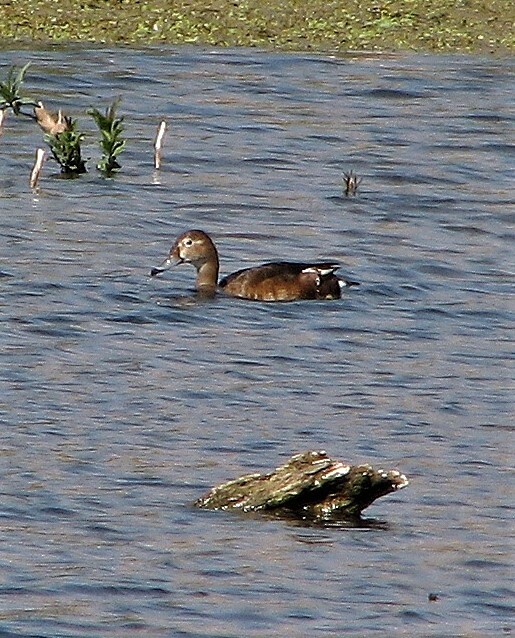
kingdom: Animalia
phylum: Chordata
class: Aves
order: Anseriformes
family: Anatidae
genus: Netta
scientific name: Netta peposaca
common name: Rosy-billed pochard
